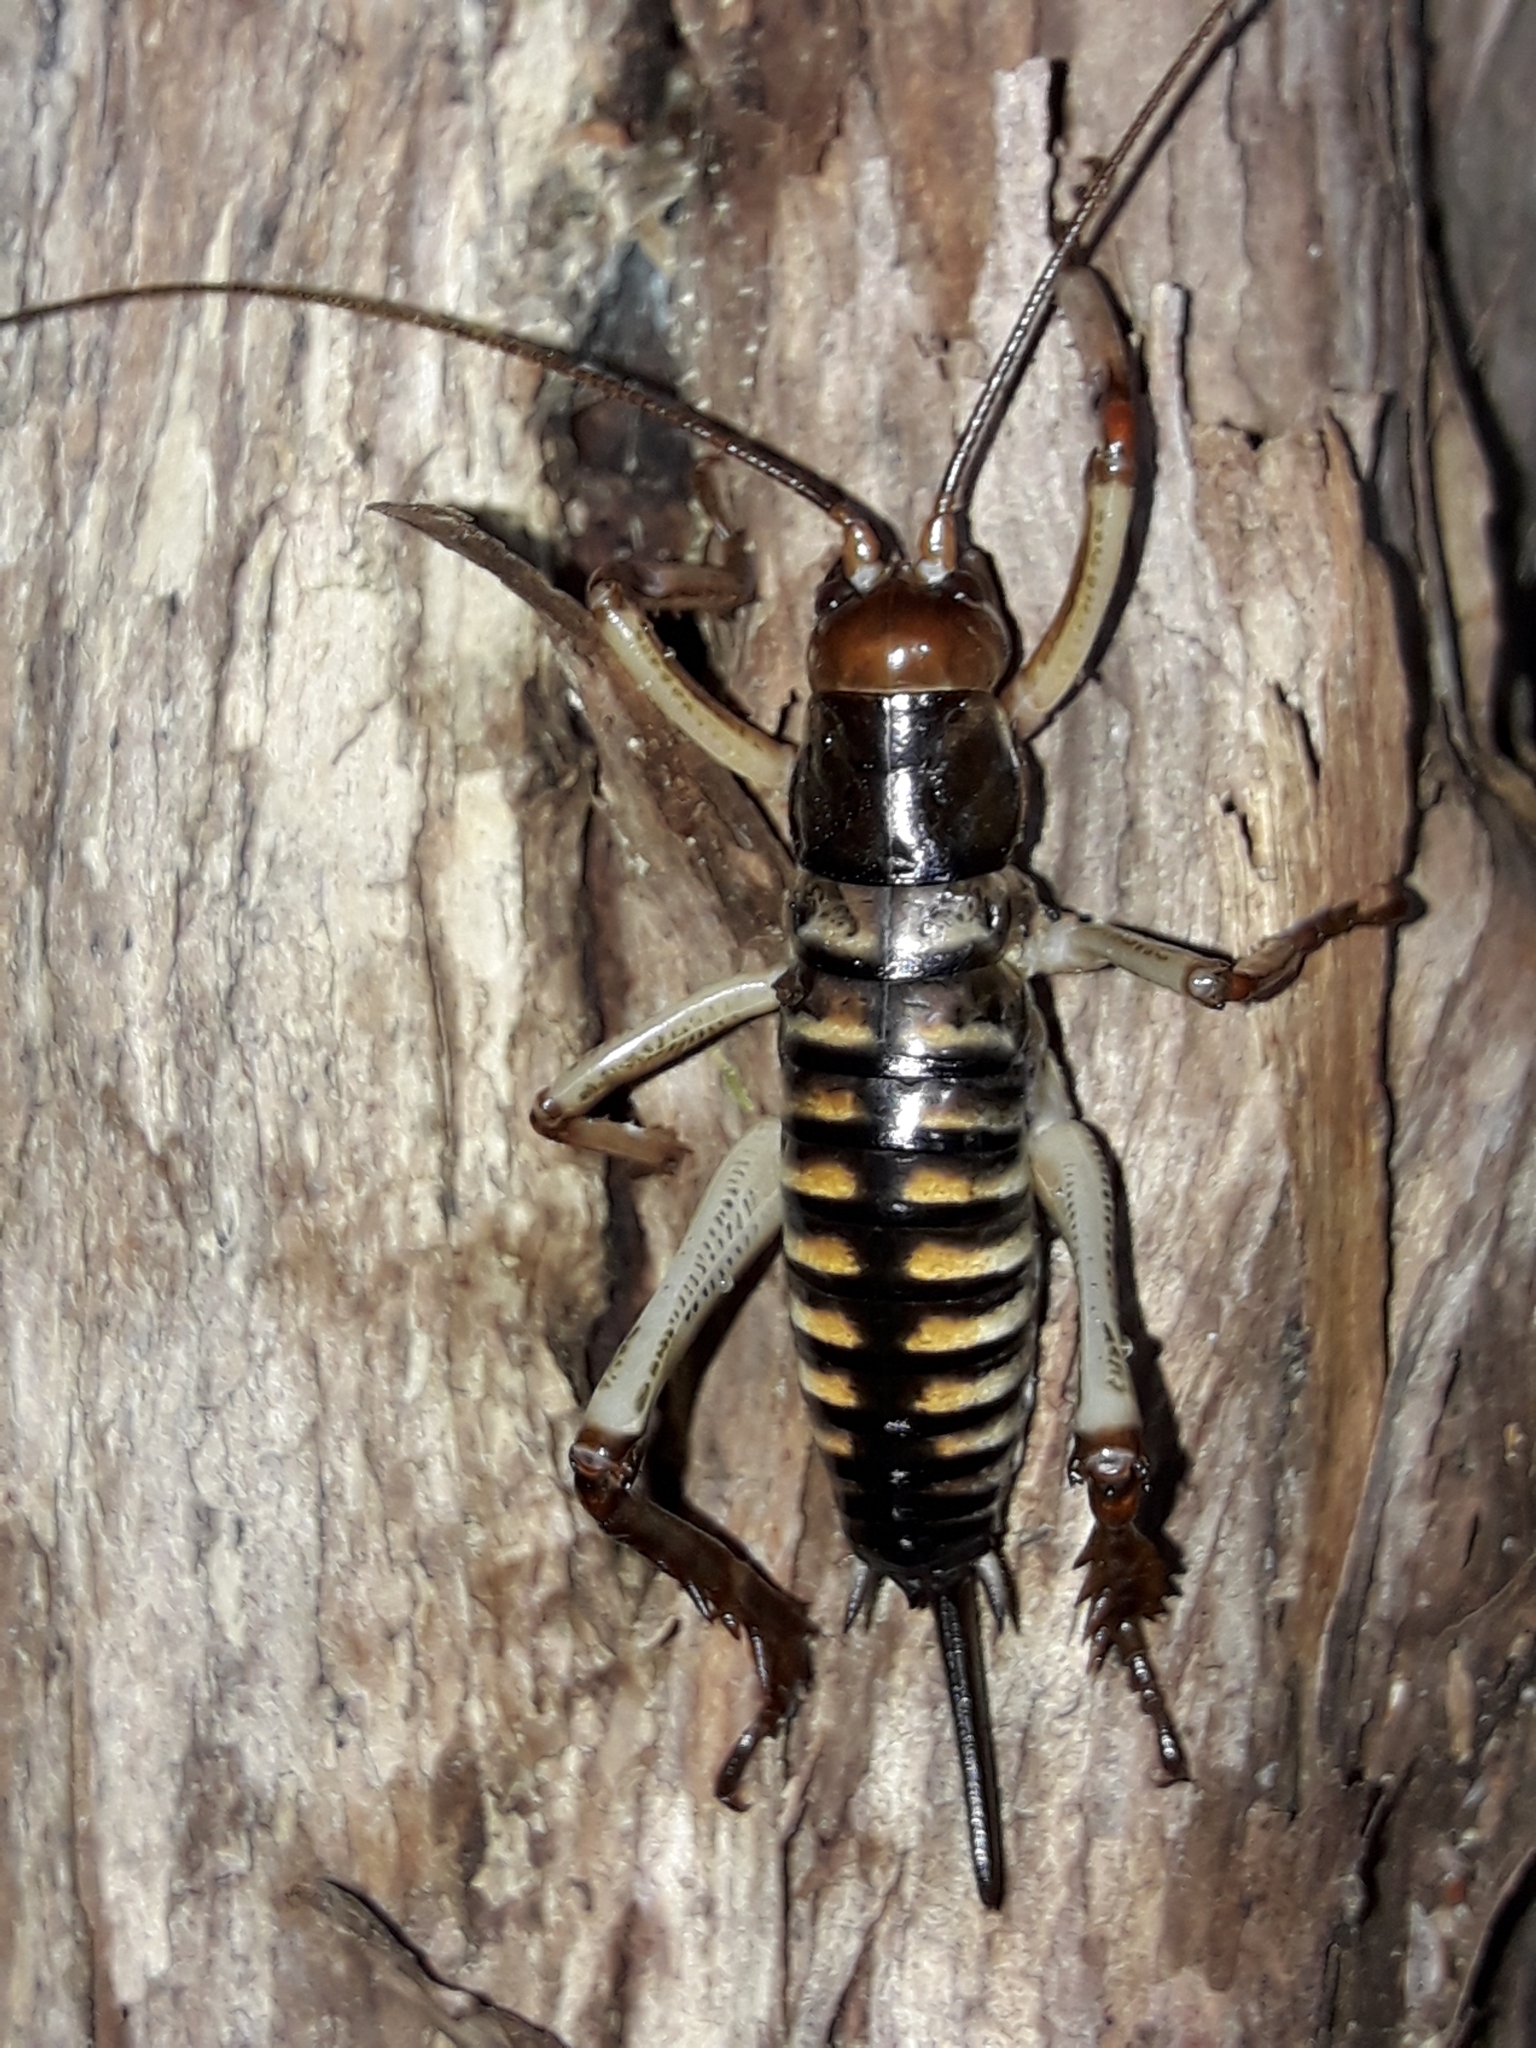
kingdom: Animalia
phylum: Arthropoda
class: Insecta
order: Orthoptera
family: Anostostomatidae
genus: Hemideina
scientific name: Hemideina crassidens
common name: Wellington tree weta
